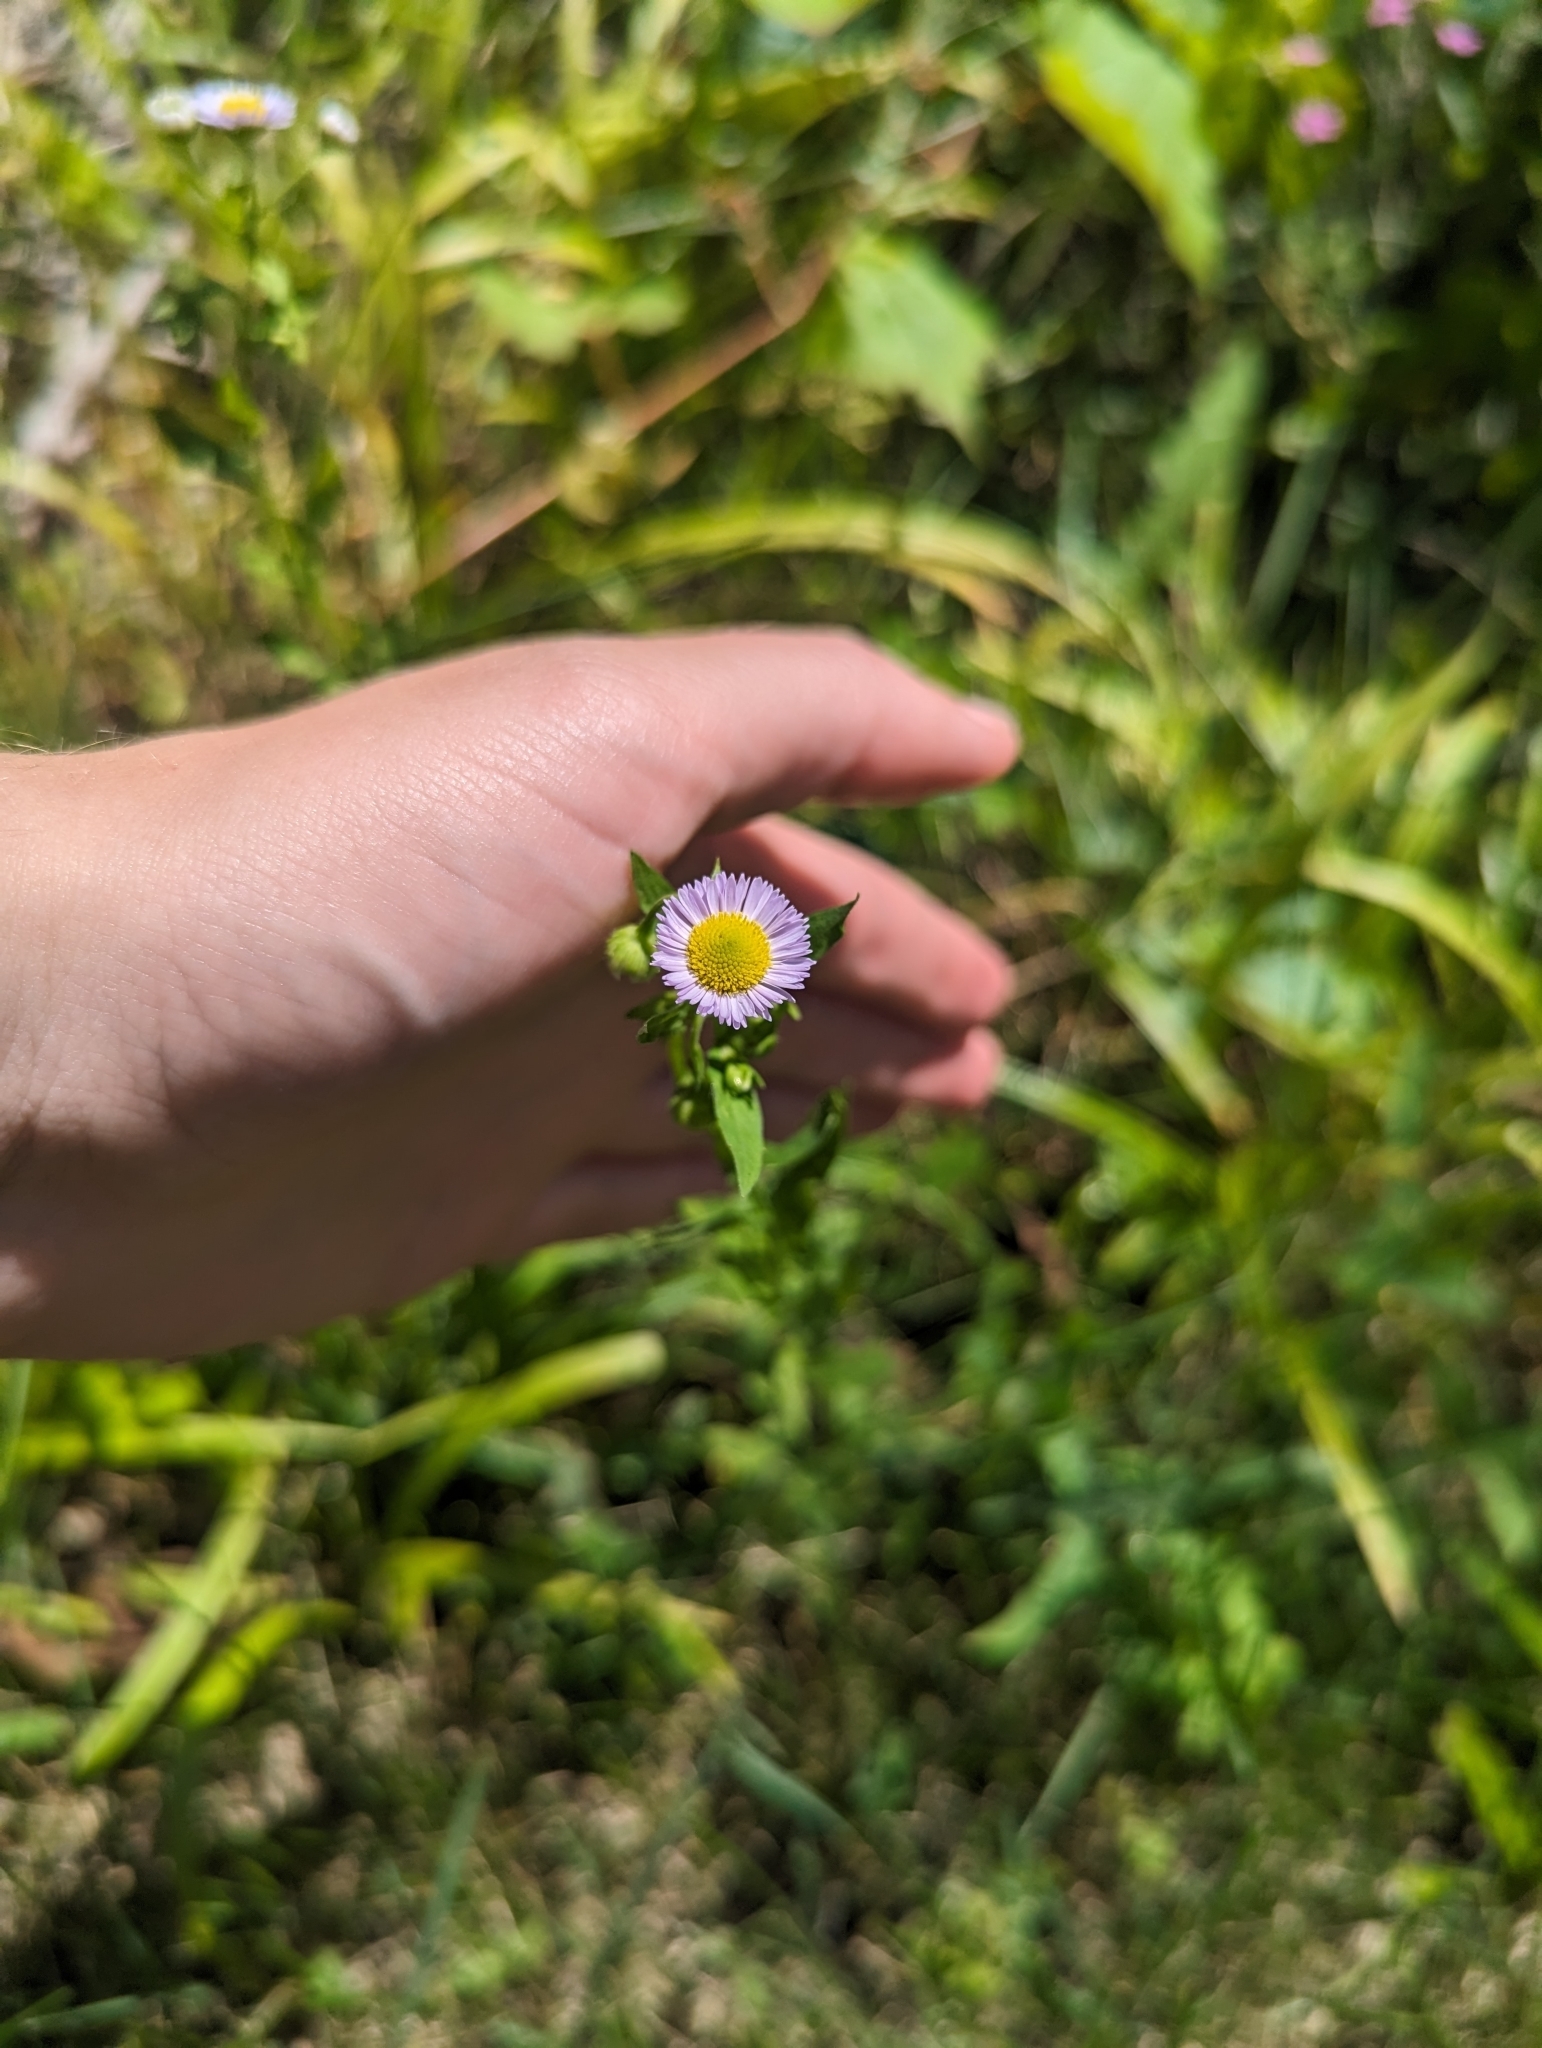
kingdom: Plantae
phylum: Tracheophyta
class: Magnoliopsida
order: Asterales
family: Asteraceae
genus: Erigeron
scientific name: Erigeron philadelphicus
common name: Robin's-plantain
